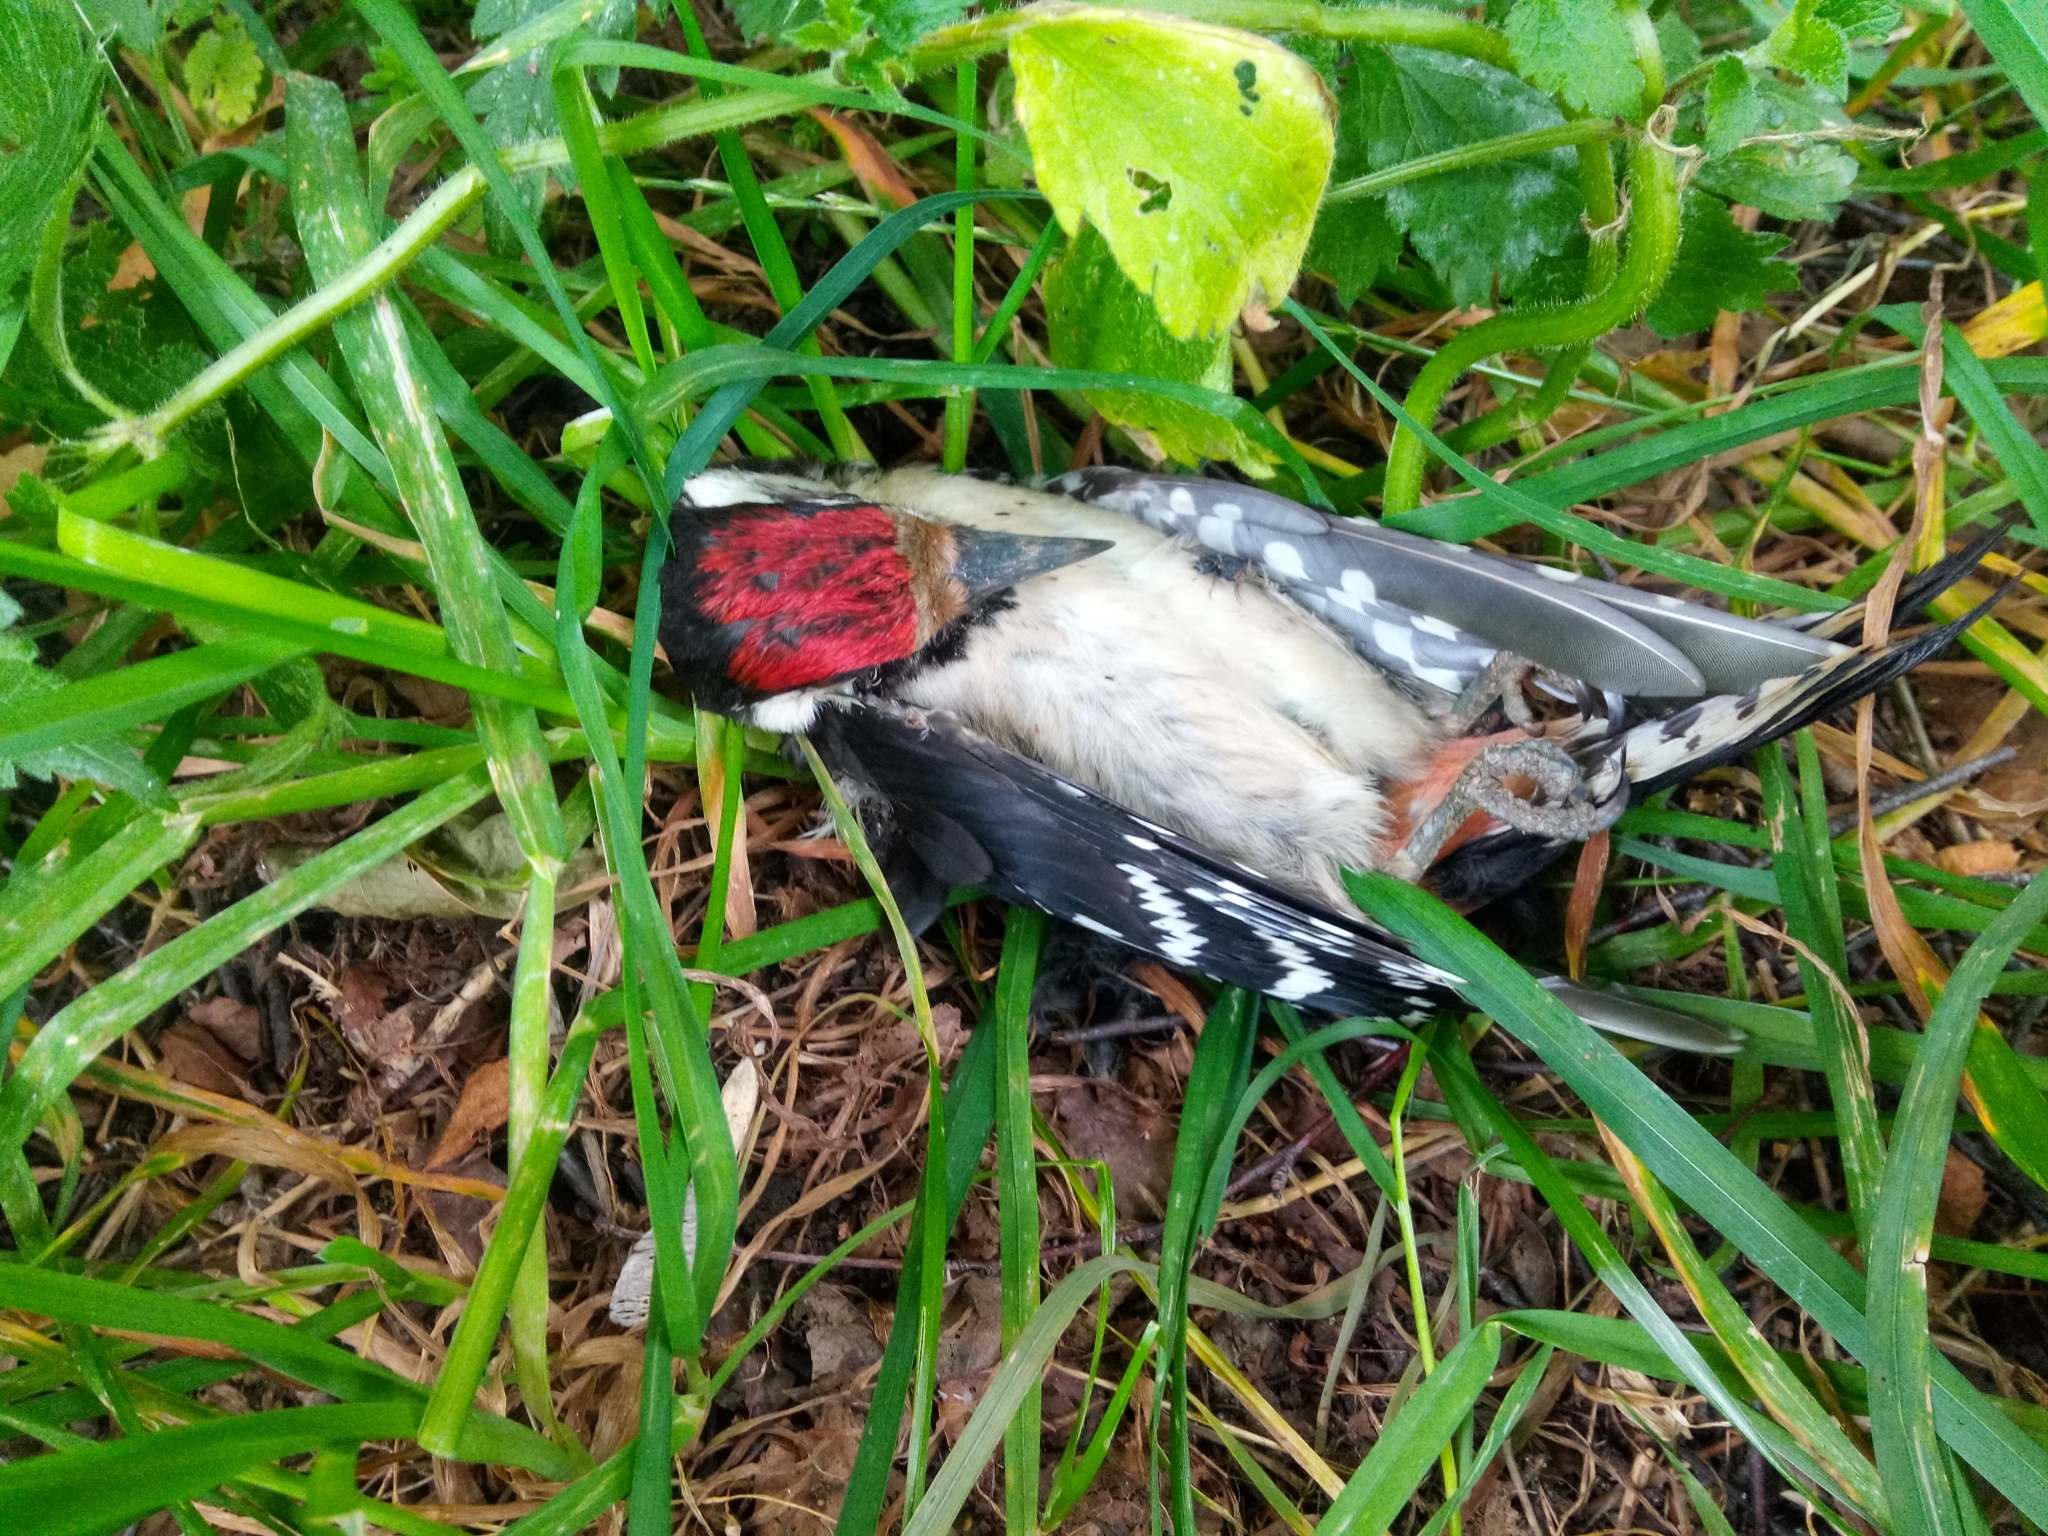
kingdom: Animalia
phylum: Chordata
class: Aves
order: Piciformes
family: Picidae
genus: Dendrocopos
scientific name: Dendrocopos major
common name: Great spotted woodpecker
